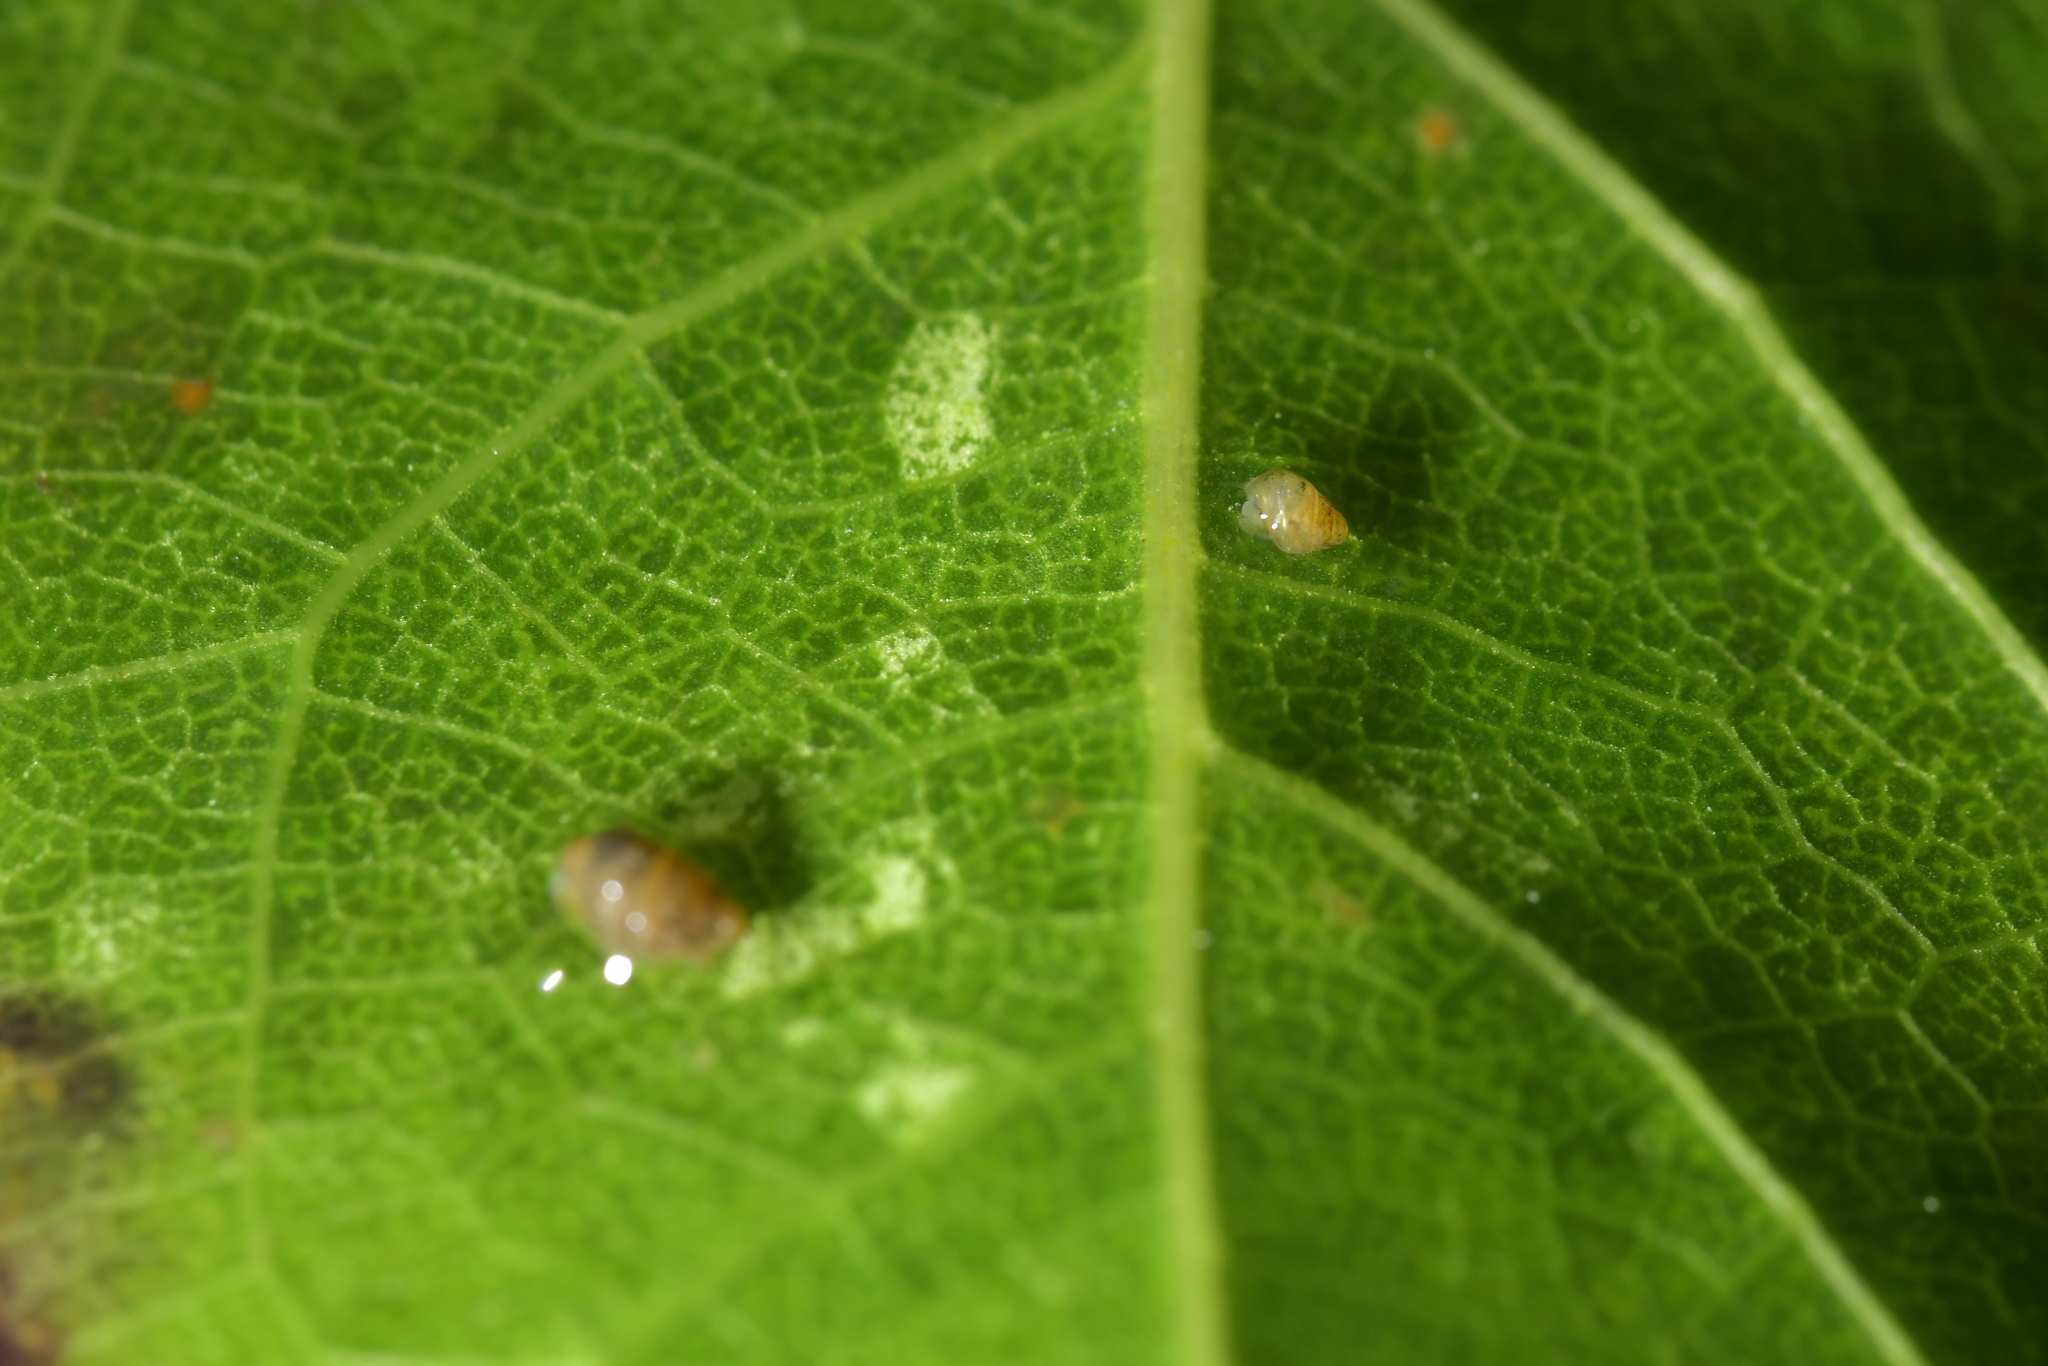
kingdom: Animalia
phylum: Mollusca
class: Gastropoda
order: Littorinimorpha
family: Tateidae
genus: Potamopyrgus
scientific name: Potamopyrgus antipodarum
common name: Jenkins' spire snail
